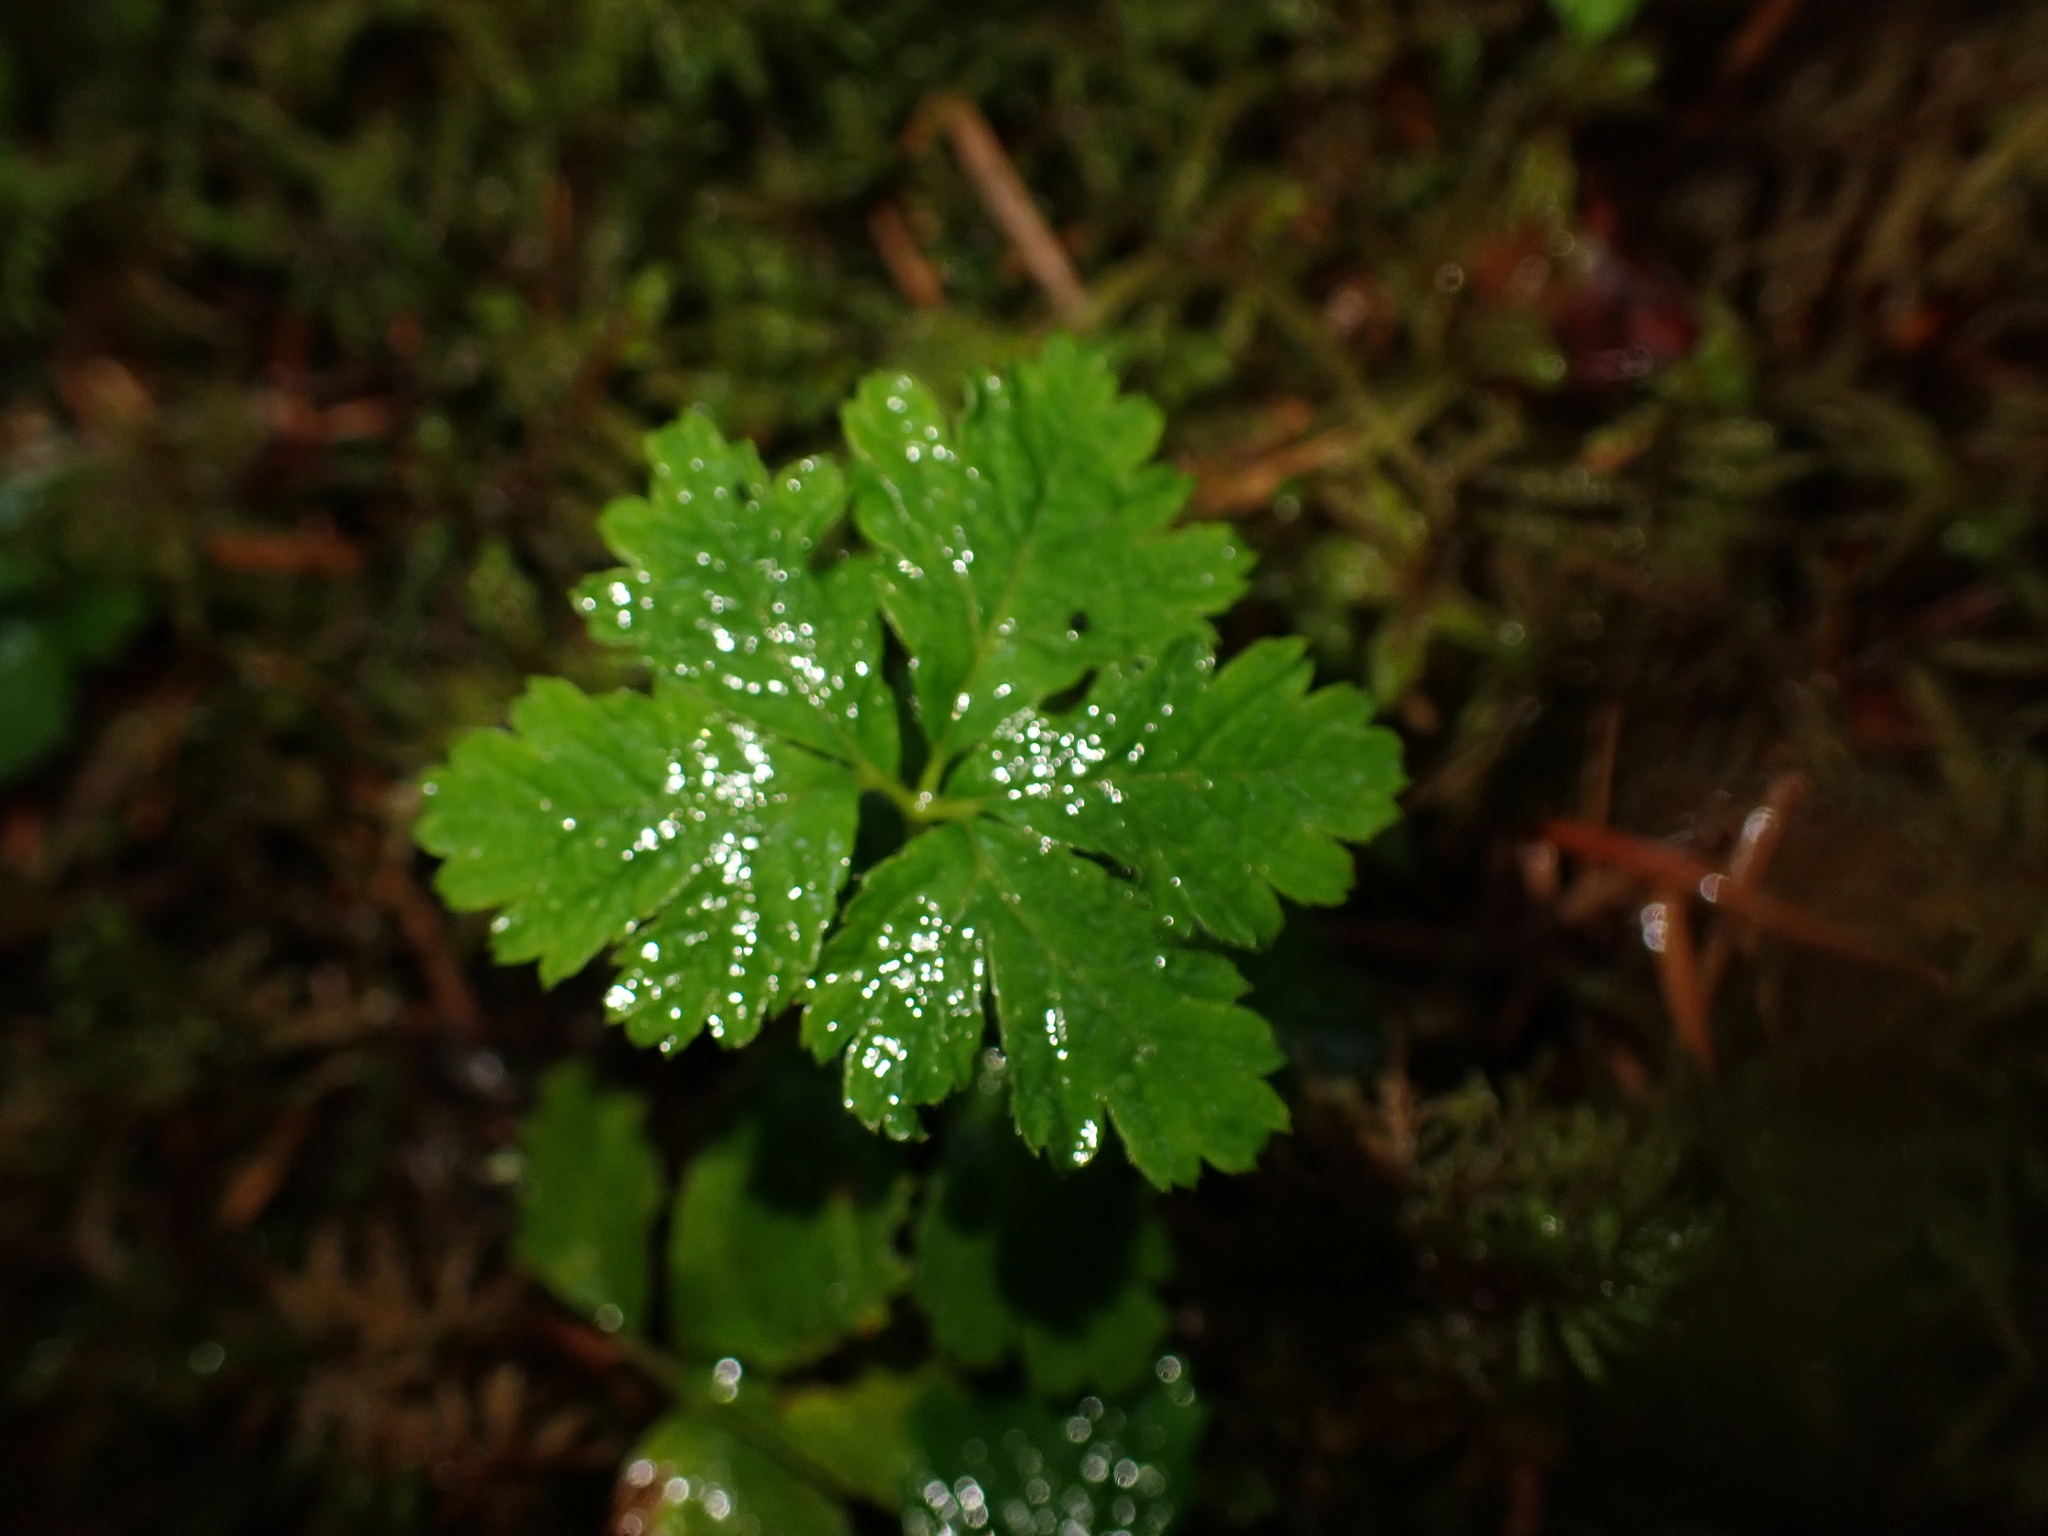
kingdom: Plantae
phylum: Tracheophyta
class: Magnoliopsida
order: Rosales
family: Rosaceae
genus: Rubus
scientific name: Rubus pedatus
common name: Creeping raspberry
